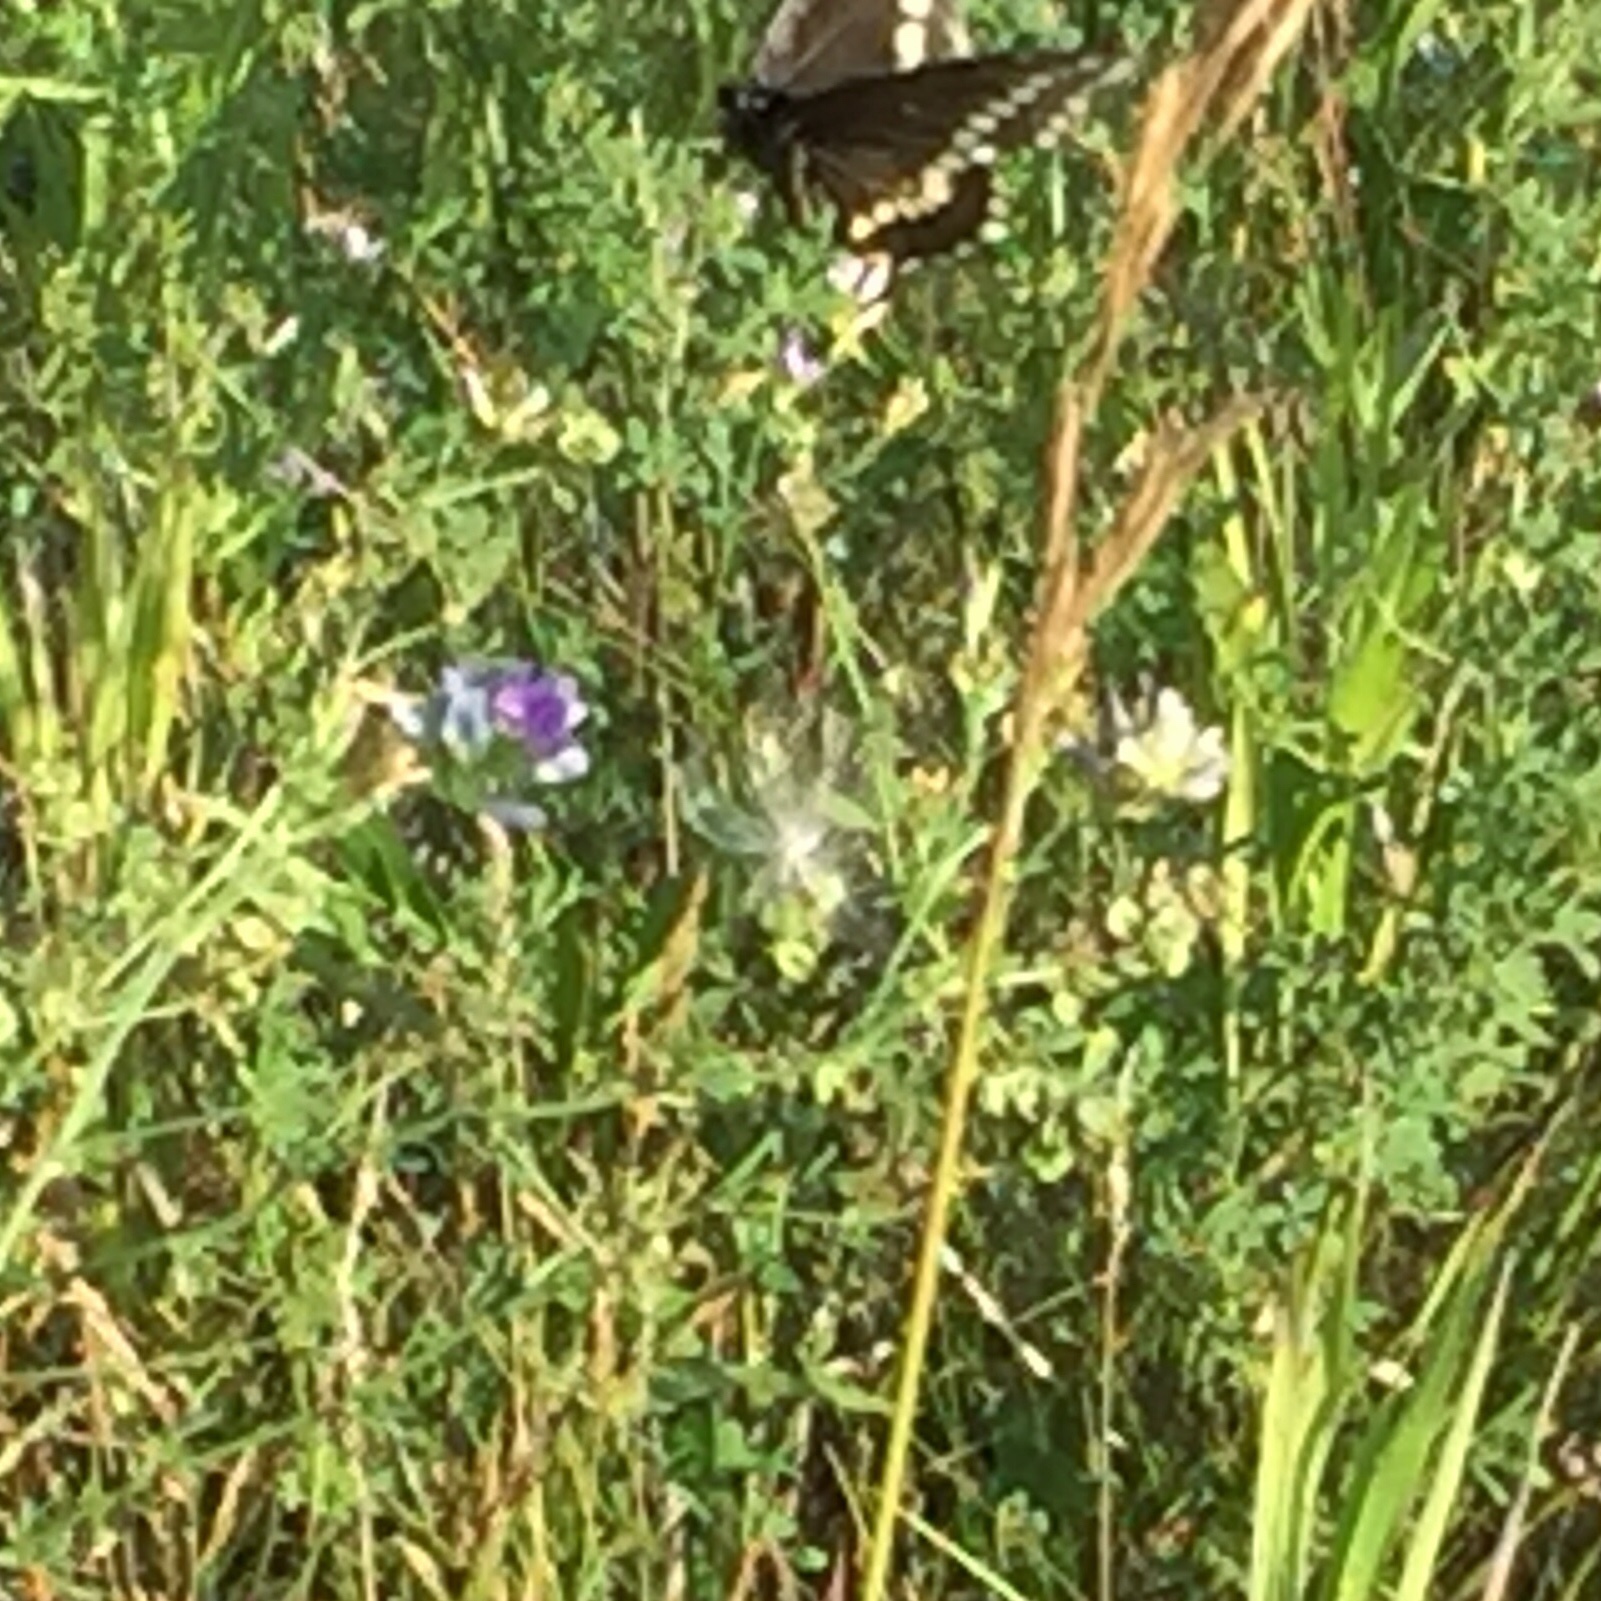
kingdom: Animalia
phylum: Arthropoda
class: Insecta
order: Lepidoptera
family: Papilionidae
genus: Papilio
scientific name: Papilio polyxenes
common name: Black swallowtail
